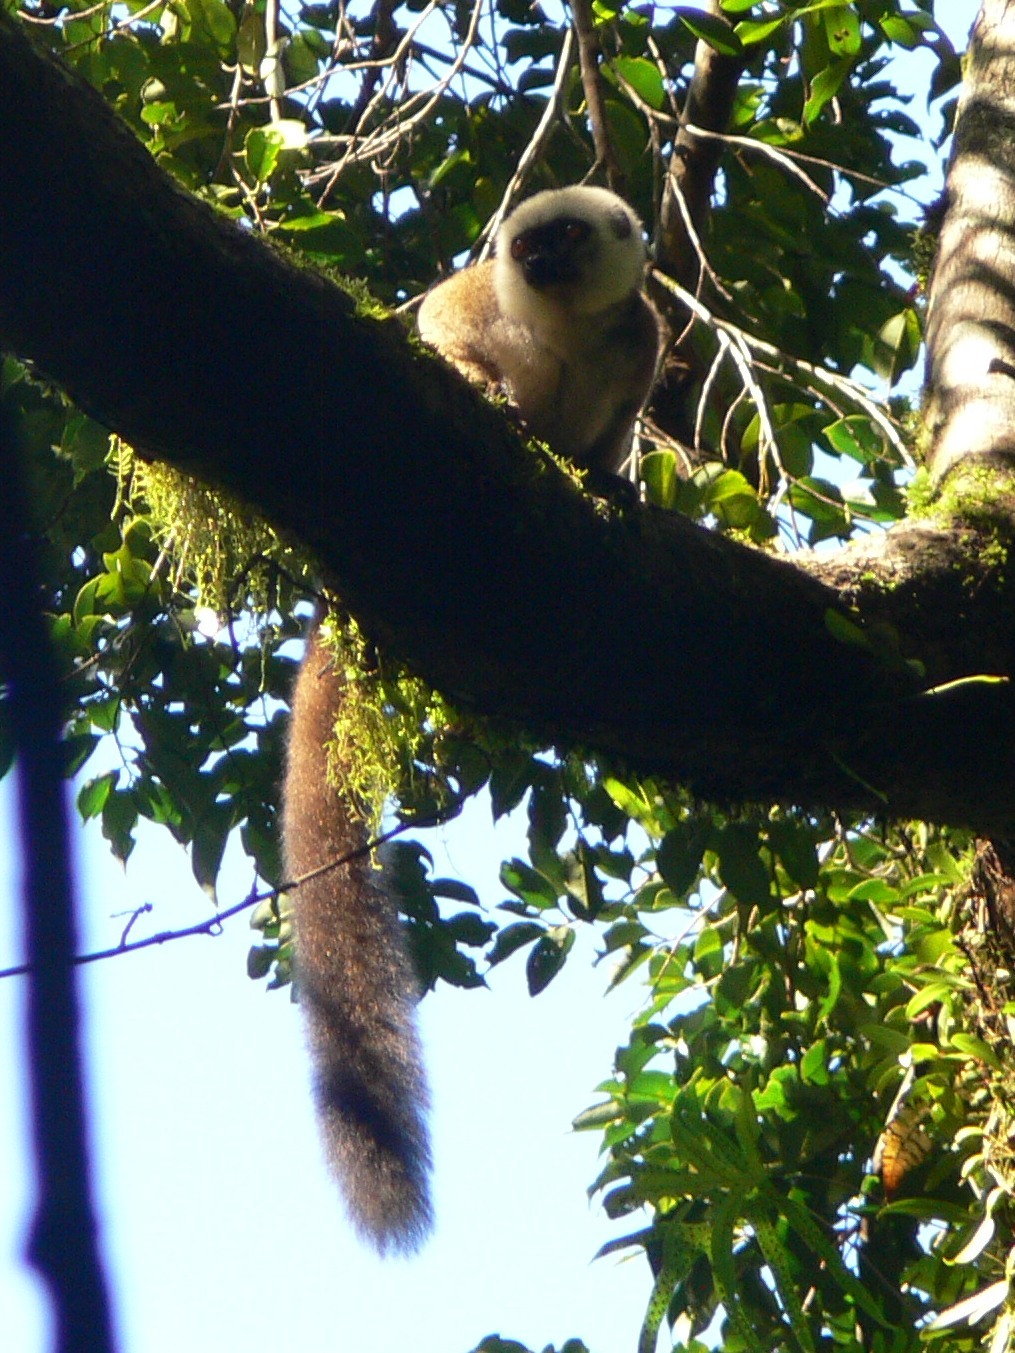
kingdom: Animalia
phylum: Chordata
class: Mammalia
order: Primates
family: Lemuridae
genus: Eulemur
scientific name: Eulemur albifrons
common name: White-headed lemur
